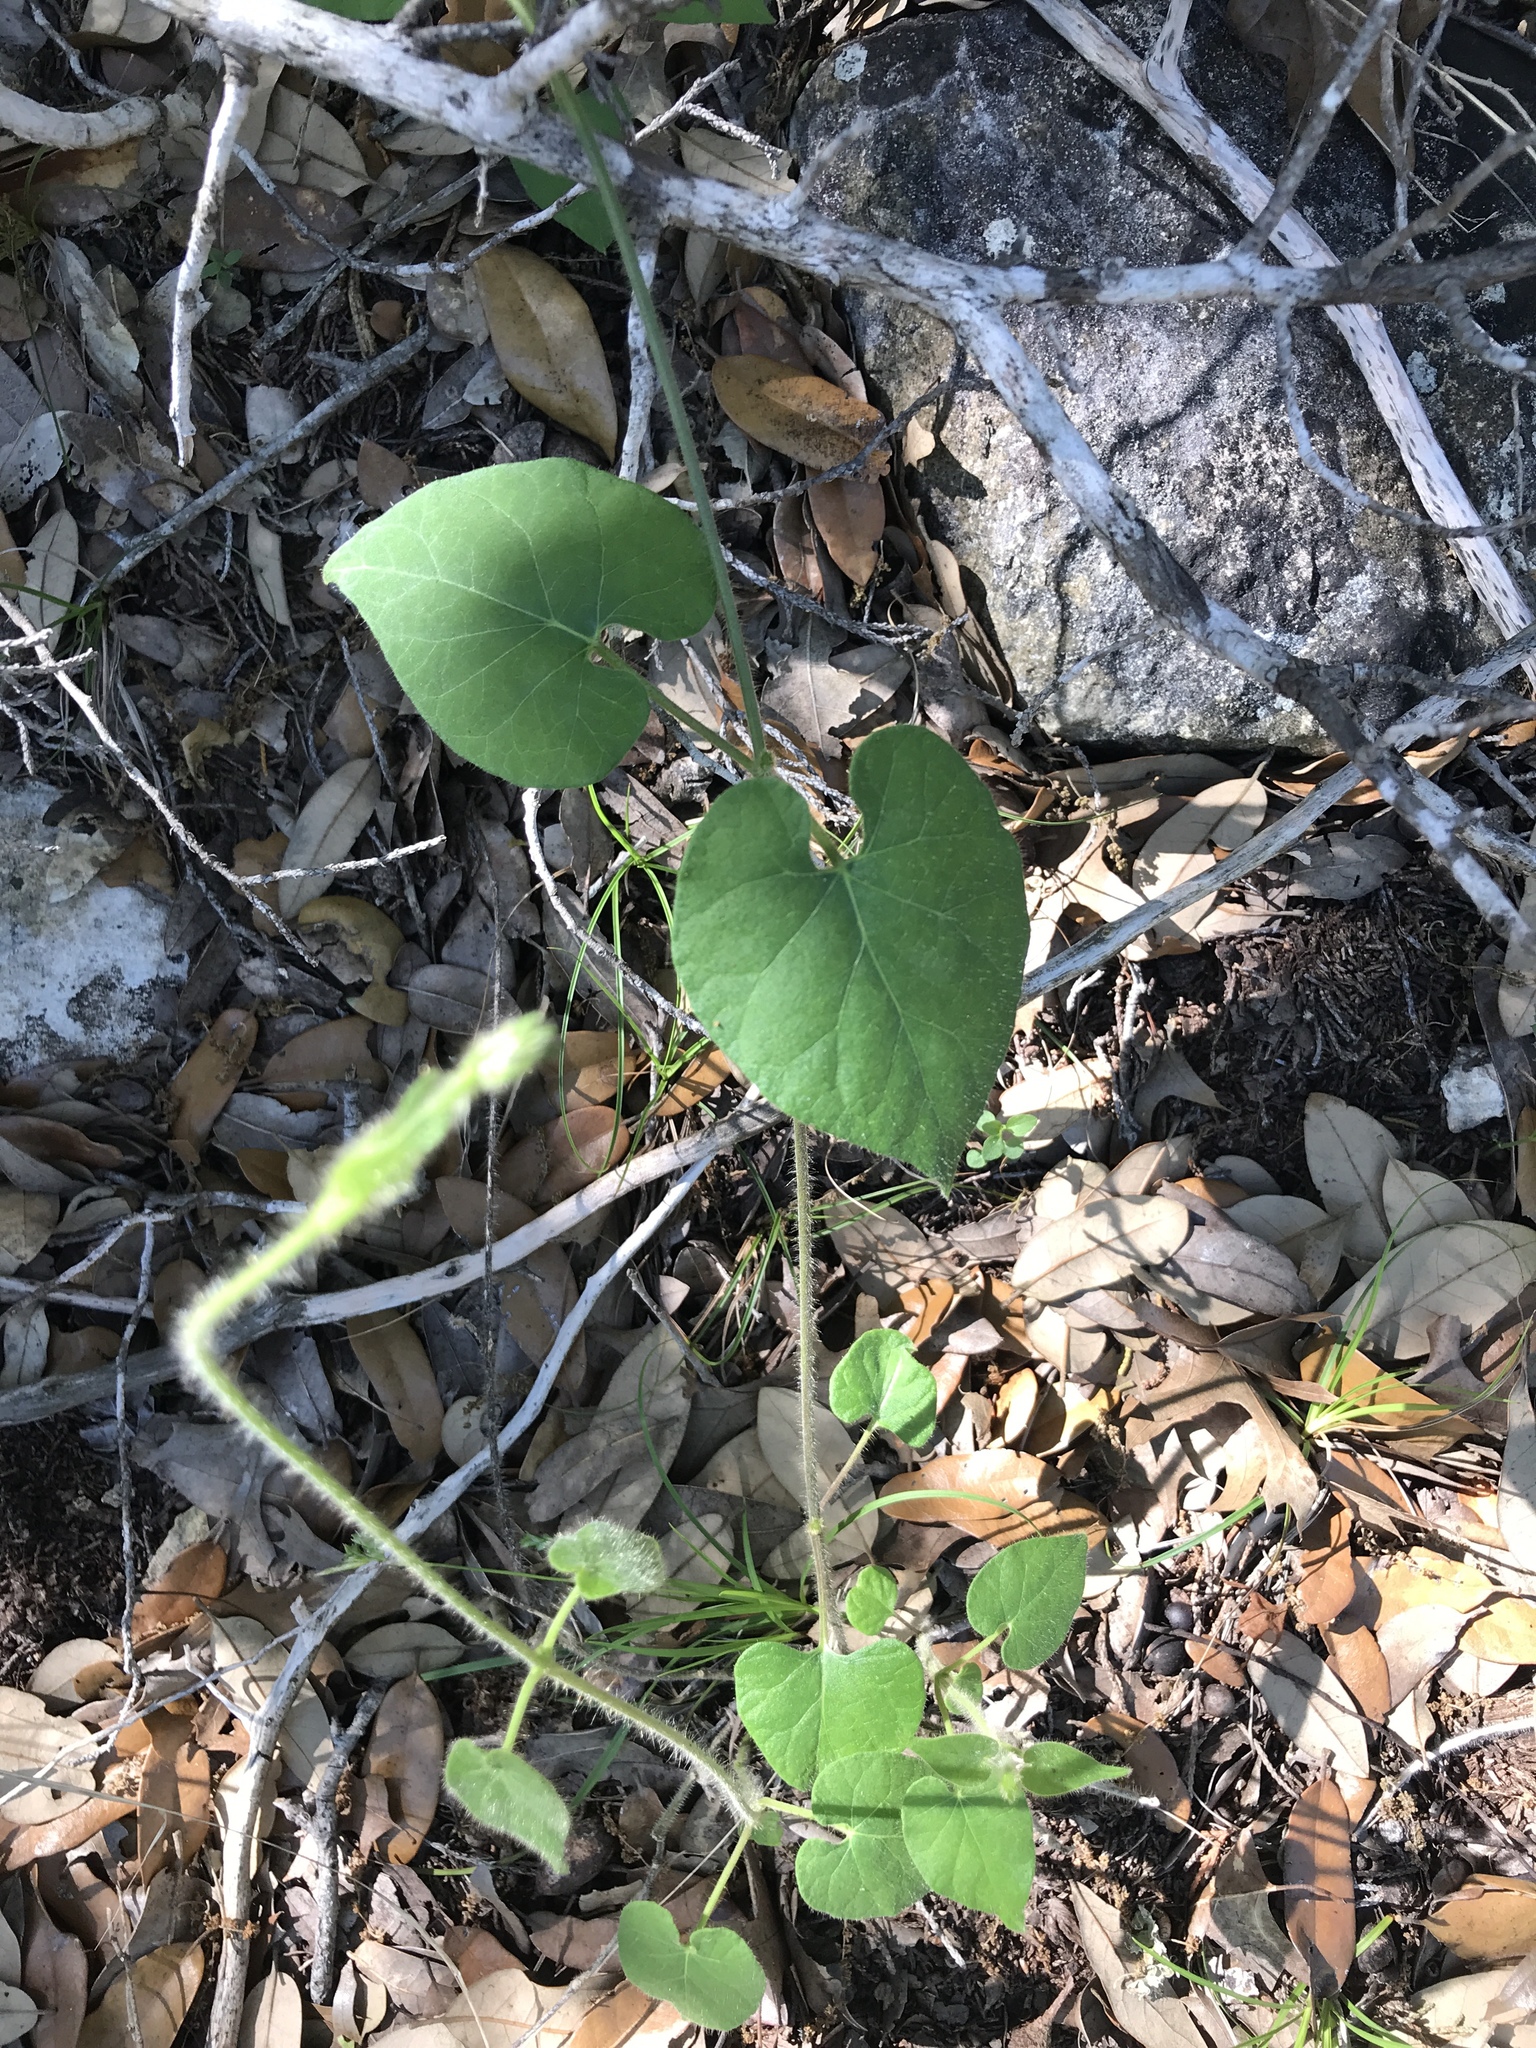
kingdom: Plantae
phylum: Tracheophyta
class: Magnoliopsida
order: Gentianales
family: Apocynaceae
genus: Dictyanthus
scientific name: Dictyanthus reticulatus
